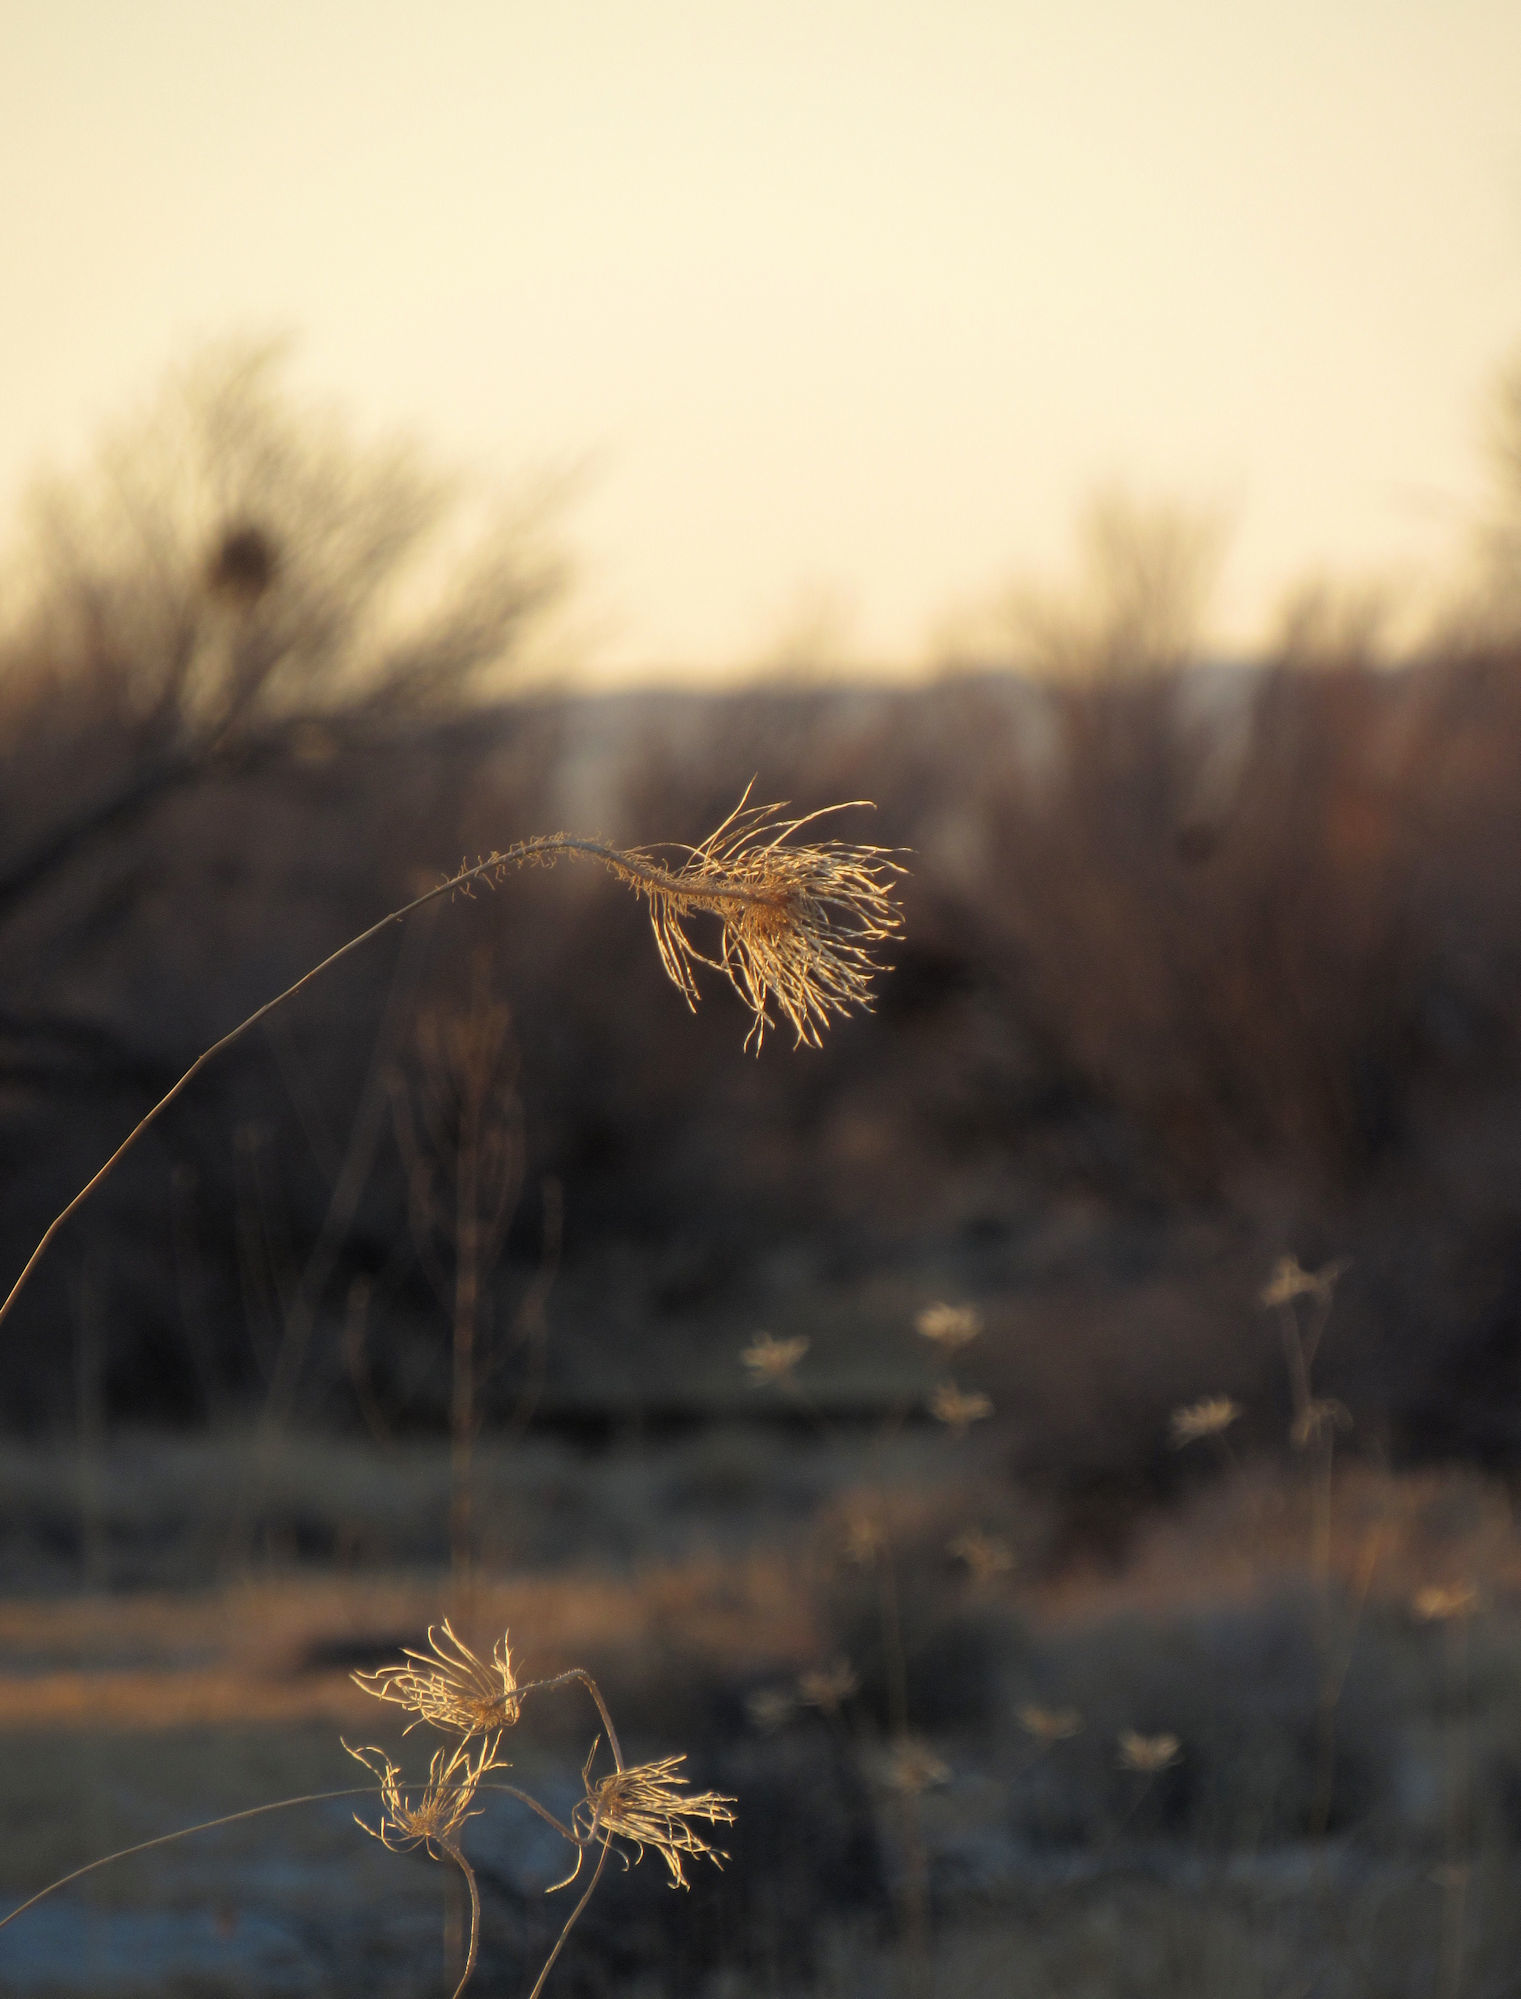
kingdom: Plantae
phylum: Tracheophyta
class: Magnoliopsida
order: Brassicales
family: Brassicaceae
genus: Thelypodium
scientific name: Thelypodium integrifolium
